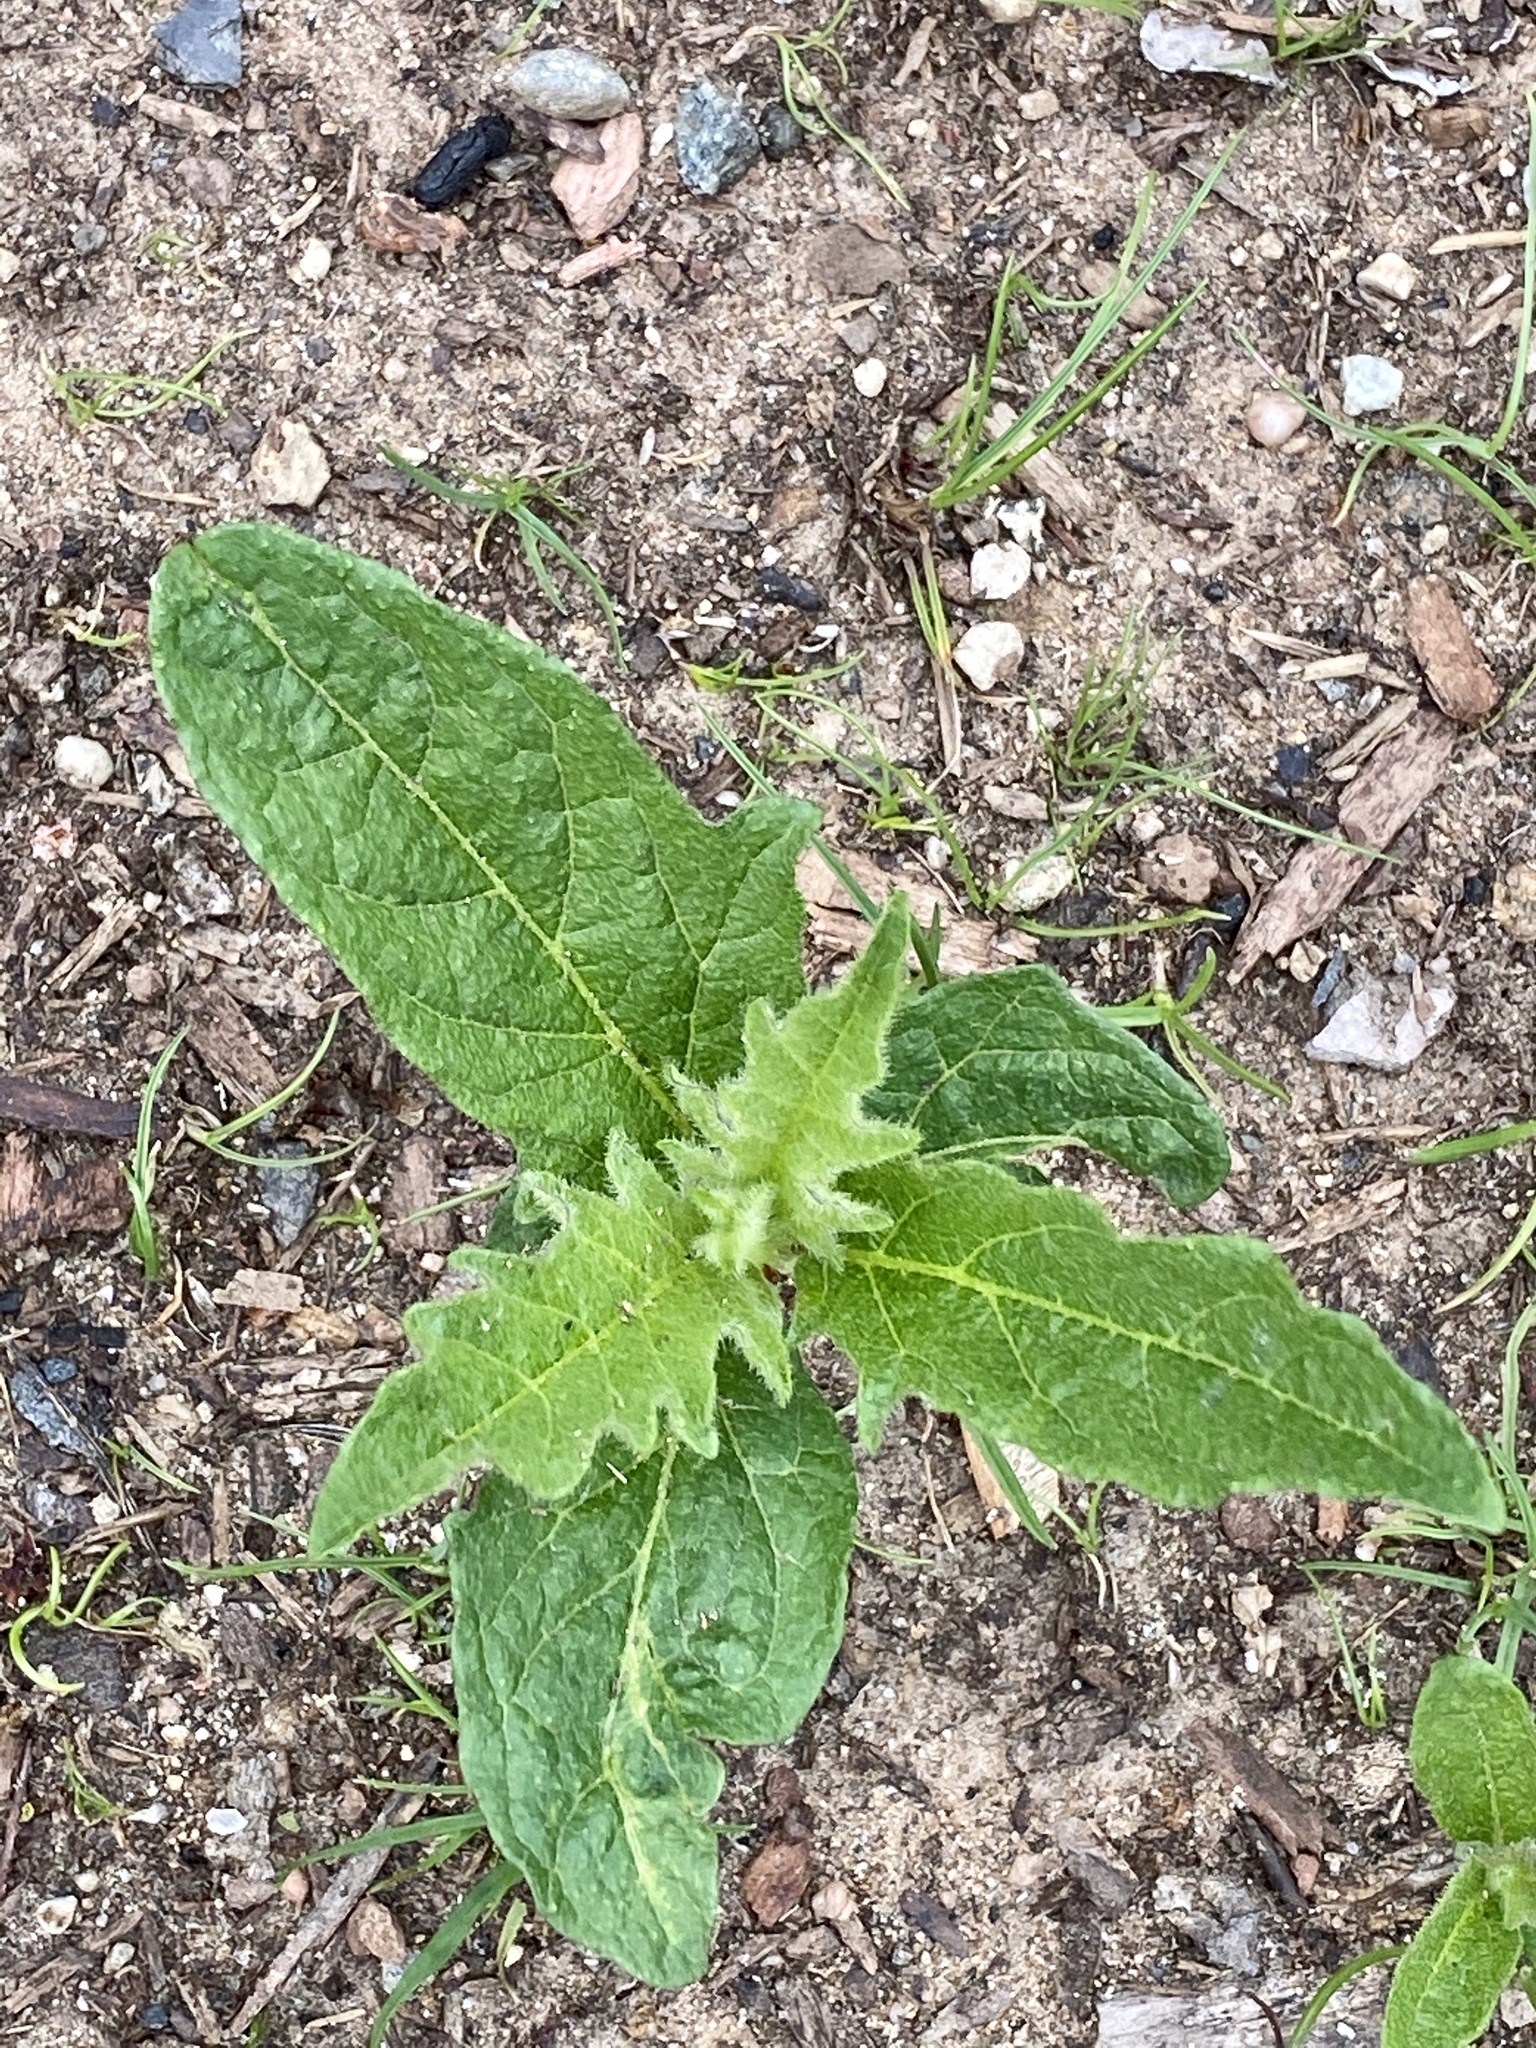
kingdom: Plantae
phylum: Tracheophyta
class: Magnoliopsida
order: Solanales
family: Solanaceae
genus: Solanum
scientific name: Solanum carolinense
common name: Horse-nettle
